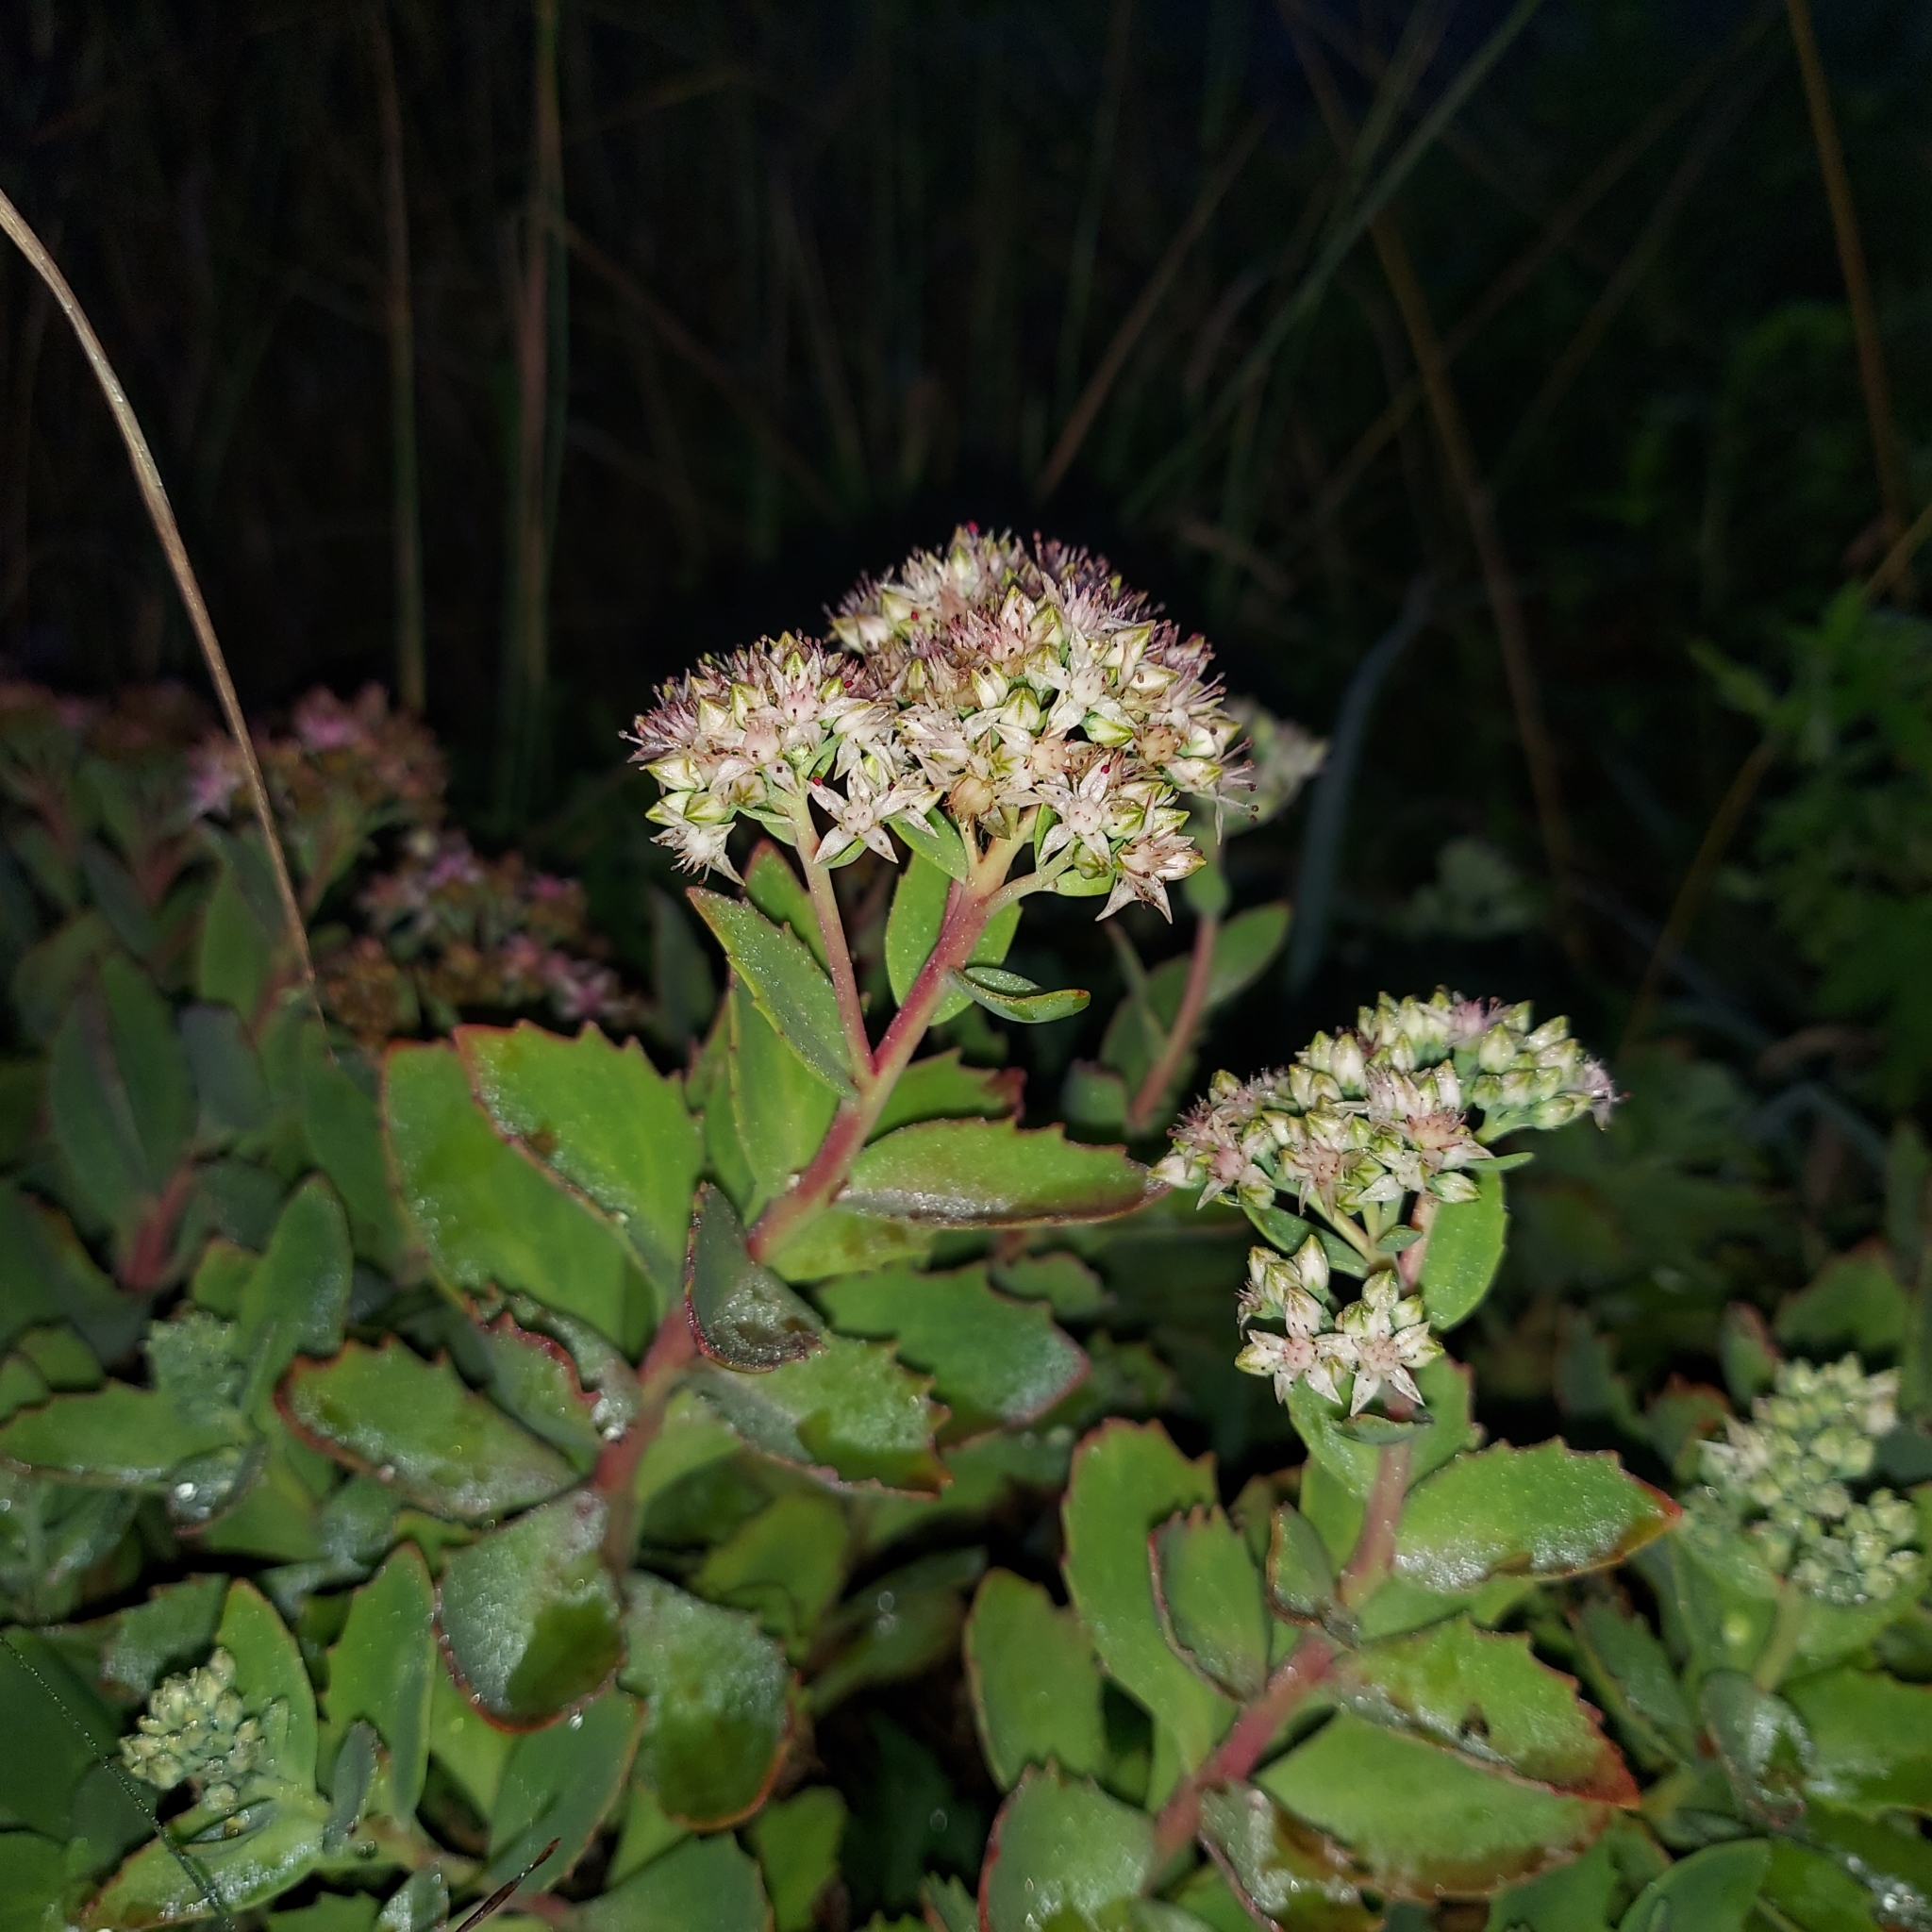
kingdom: Plantae
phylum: Tracheophyta
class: Magnoliopsida
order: Saxifragales
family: Crassulaceae
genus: Hylotelephium
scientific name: Hylotelephium telephioides
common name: Allegheny stonecrop
